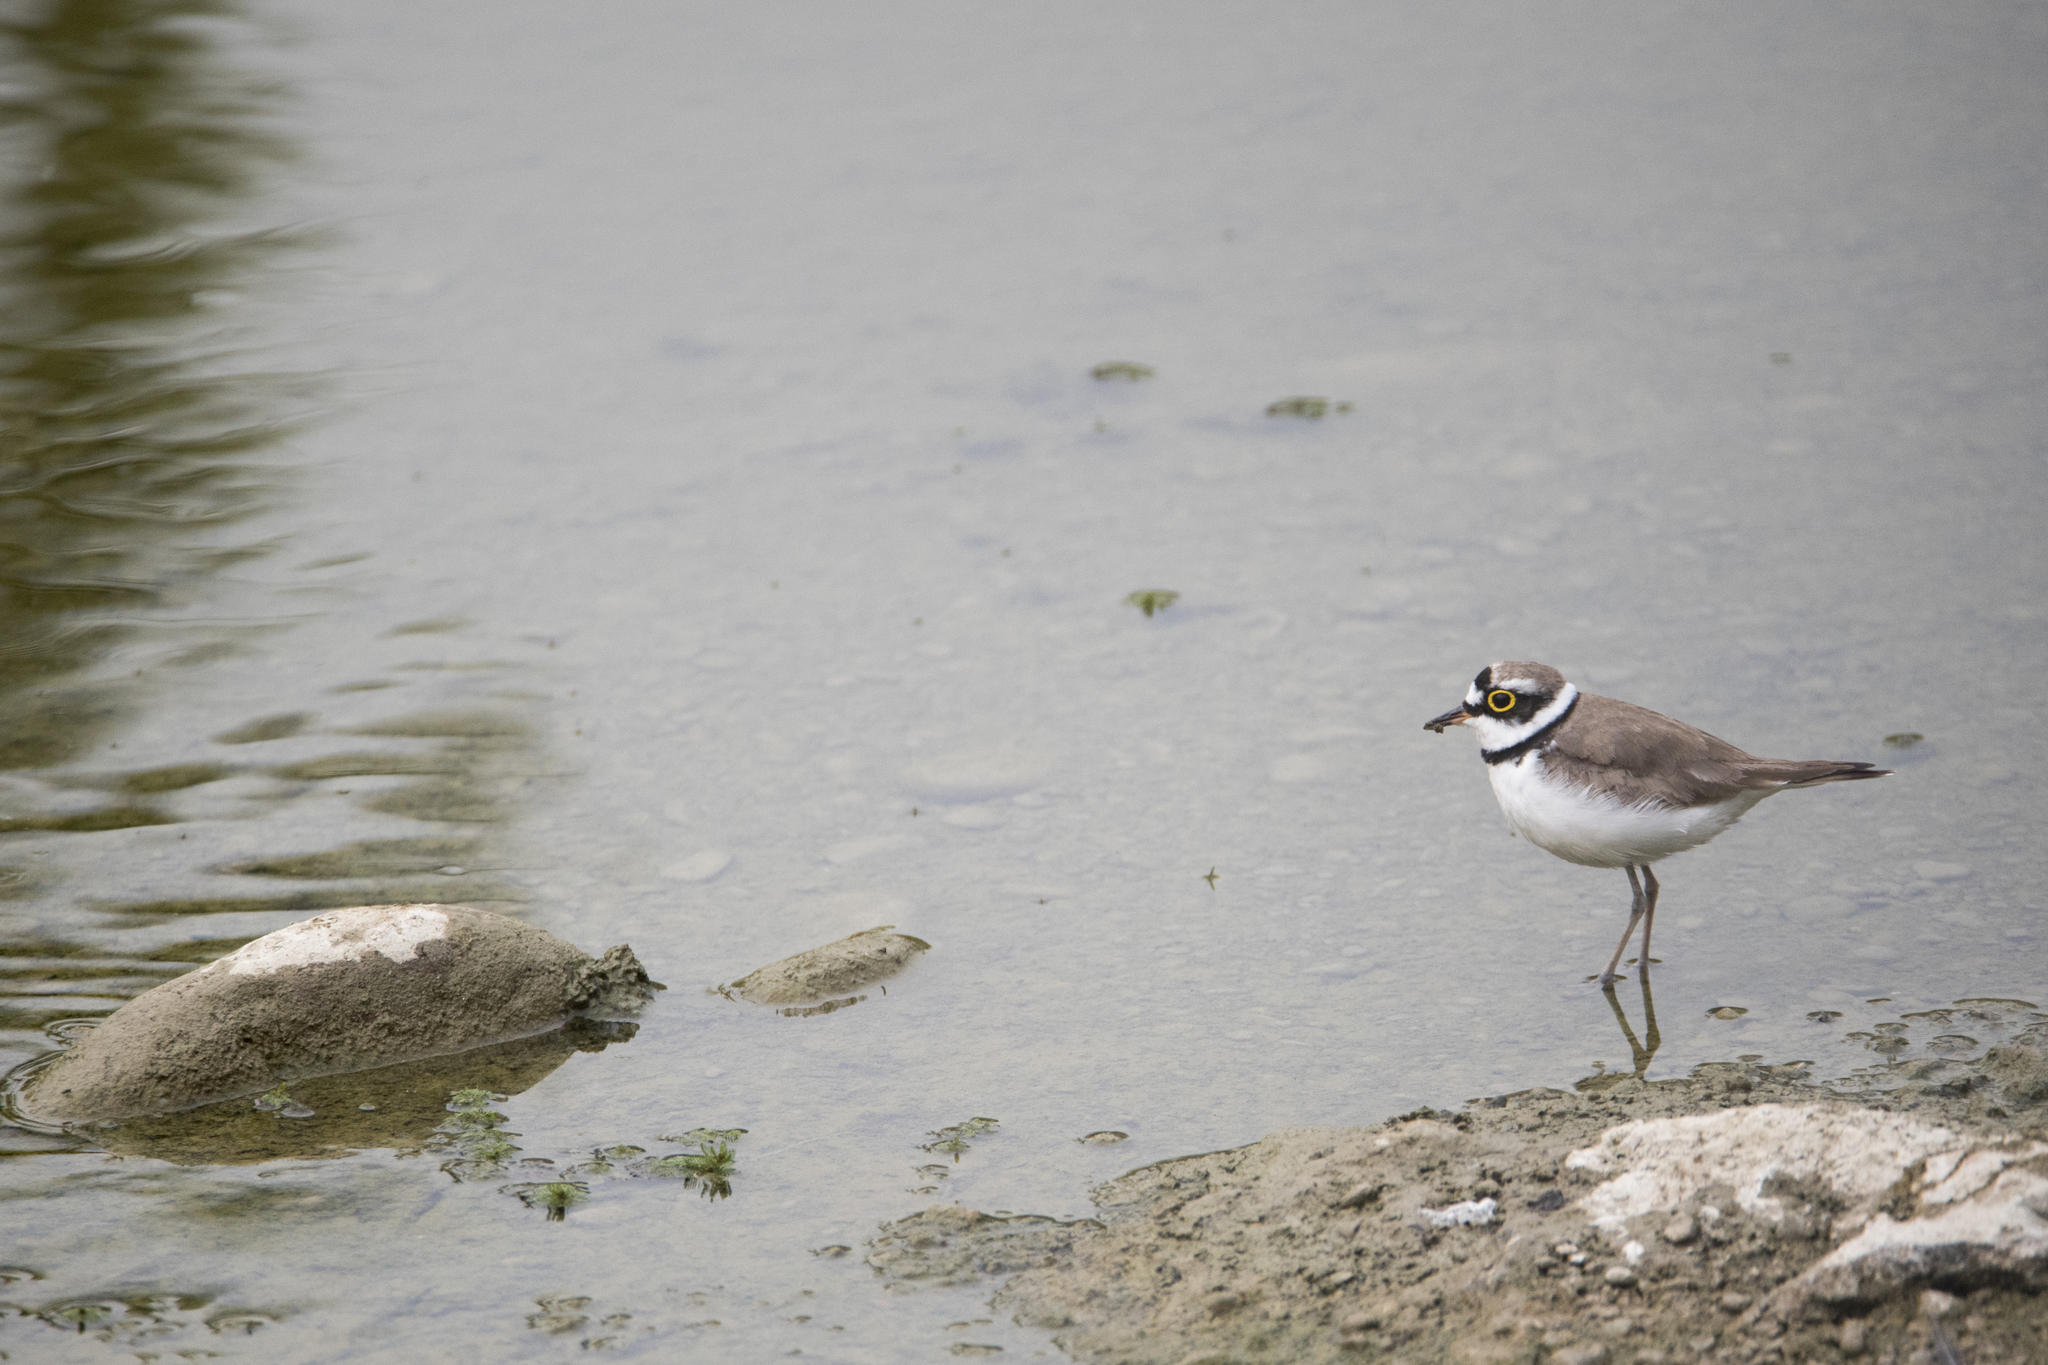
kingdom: Animalia
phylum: Chordata
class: Aves
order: Charadriiformes
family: Charadriidae
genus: Charadrius
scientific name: Charadrius dubius
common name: Little ringed plover
